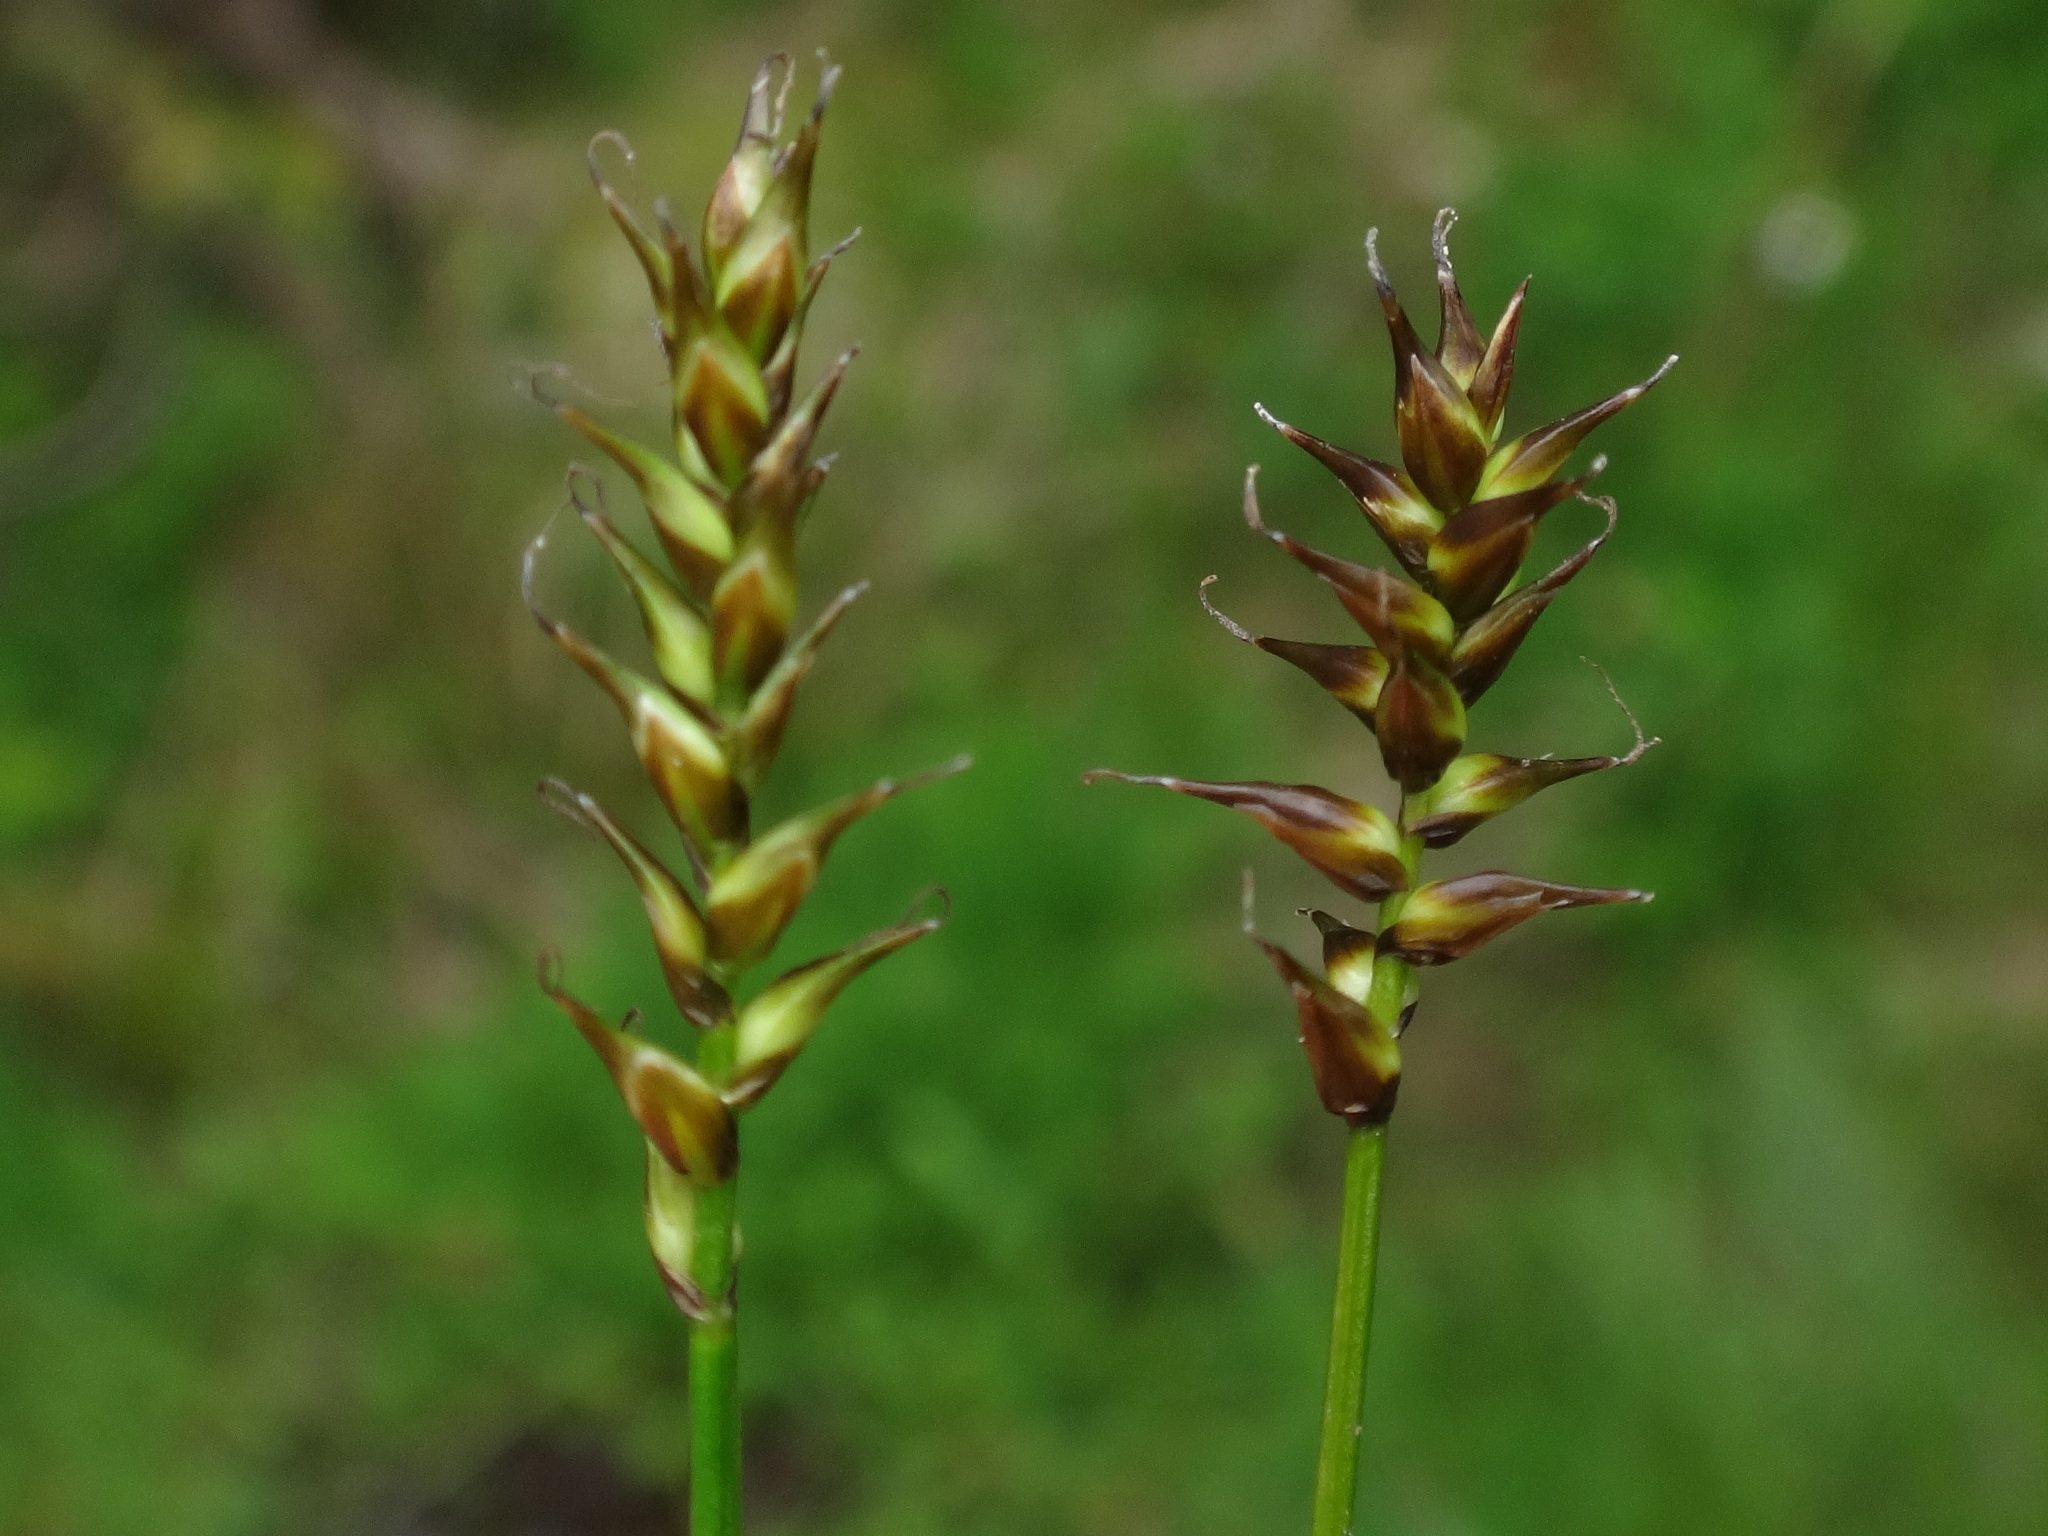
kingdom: Plantae
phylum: Tracheophyta
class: Liliopsida
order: Poales
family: Cyperaceae
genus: Carex
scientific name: Carex davalliana
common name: Davall's sedge
